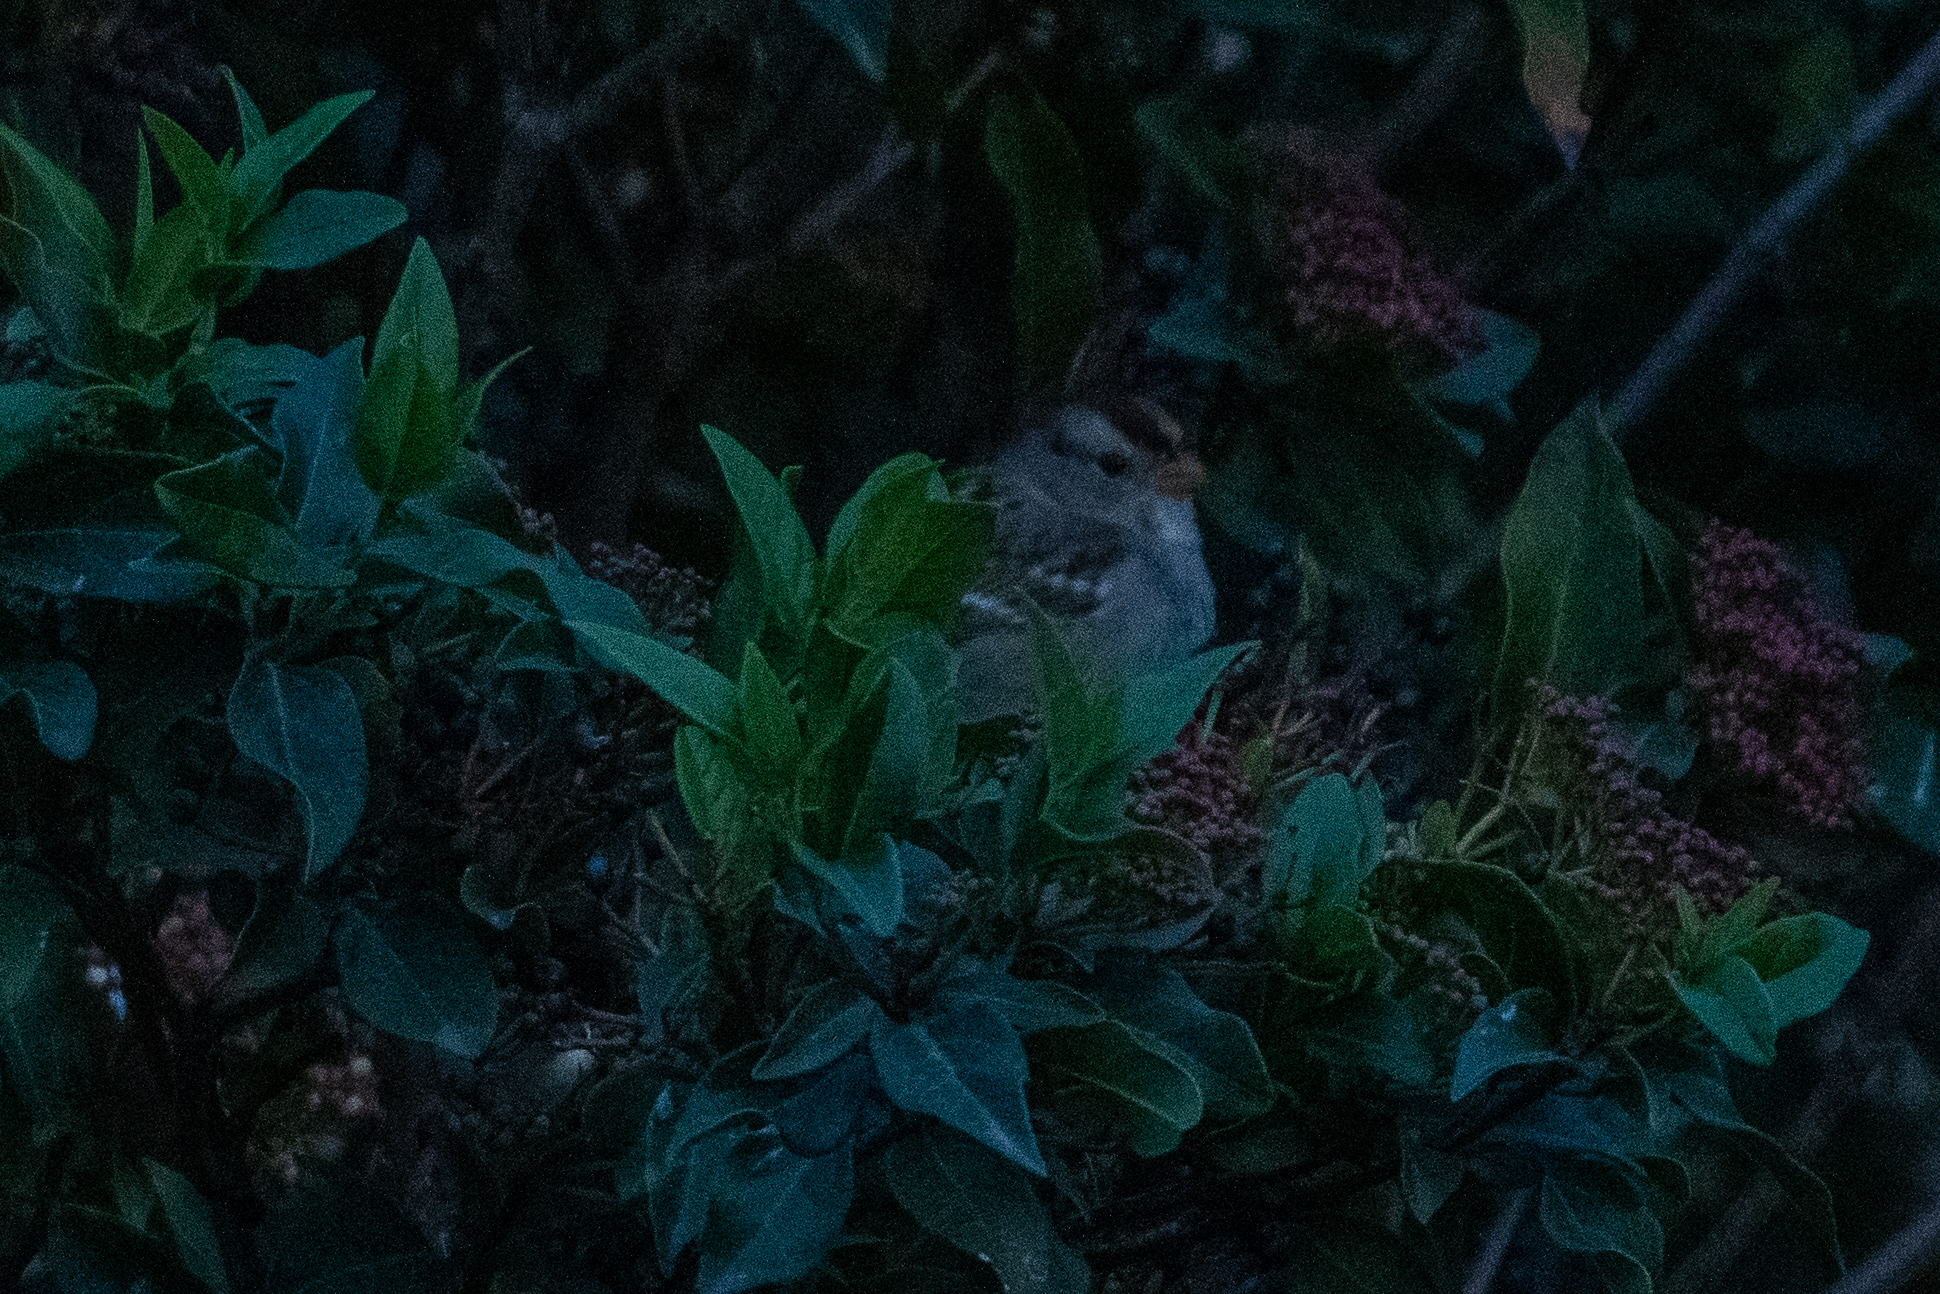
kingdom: Animalia
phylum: Chordata
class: Aves
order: Passeriformes
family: Passerellidae
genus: Zonotrichia
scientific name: Zonotrichia leucophrys
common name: White-crowned sparrow
